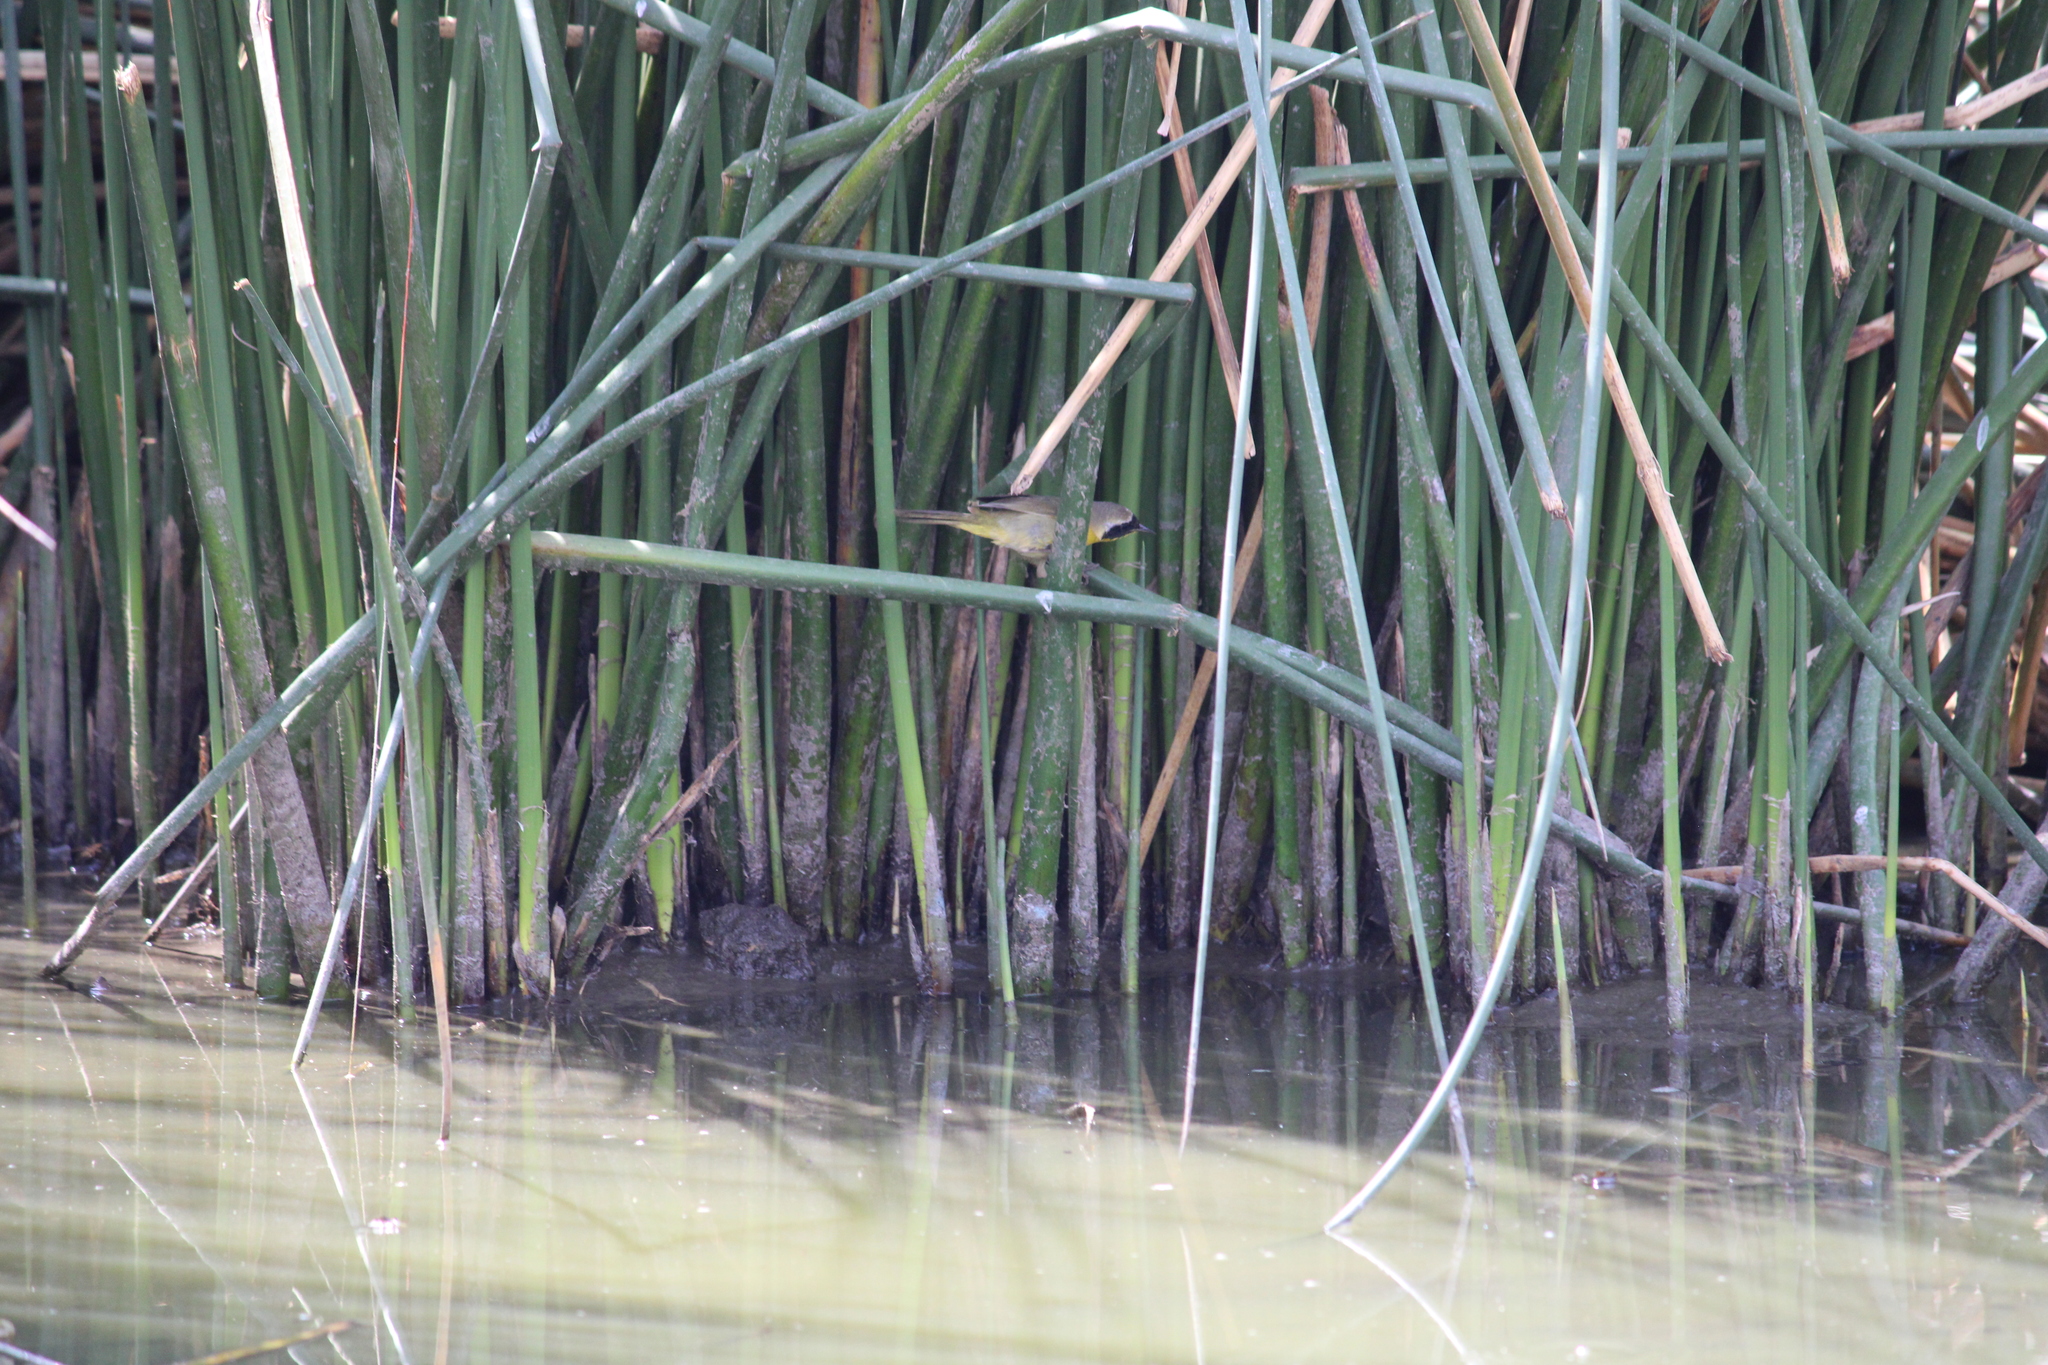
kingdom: Animalia
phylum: Chordata
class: Aves
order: Passeriformes
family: Parulidae
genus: Geothlypis
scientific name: Geothlypis trichas
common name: Common yellowthroat
